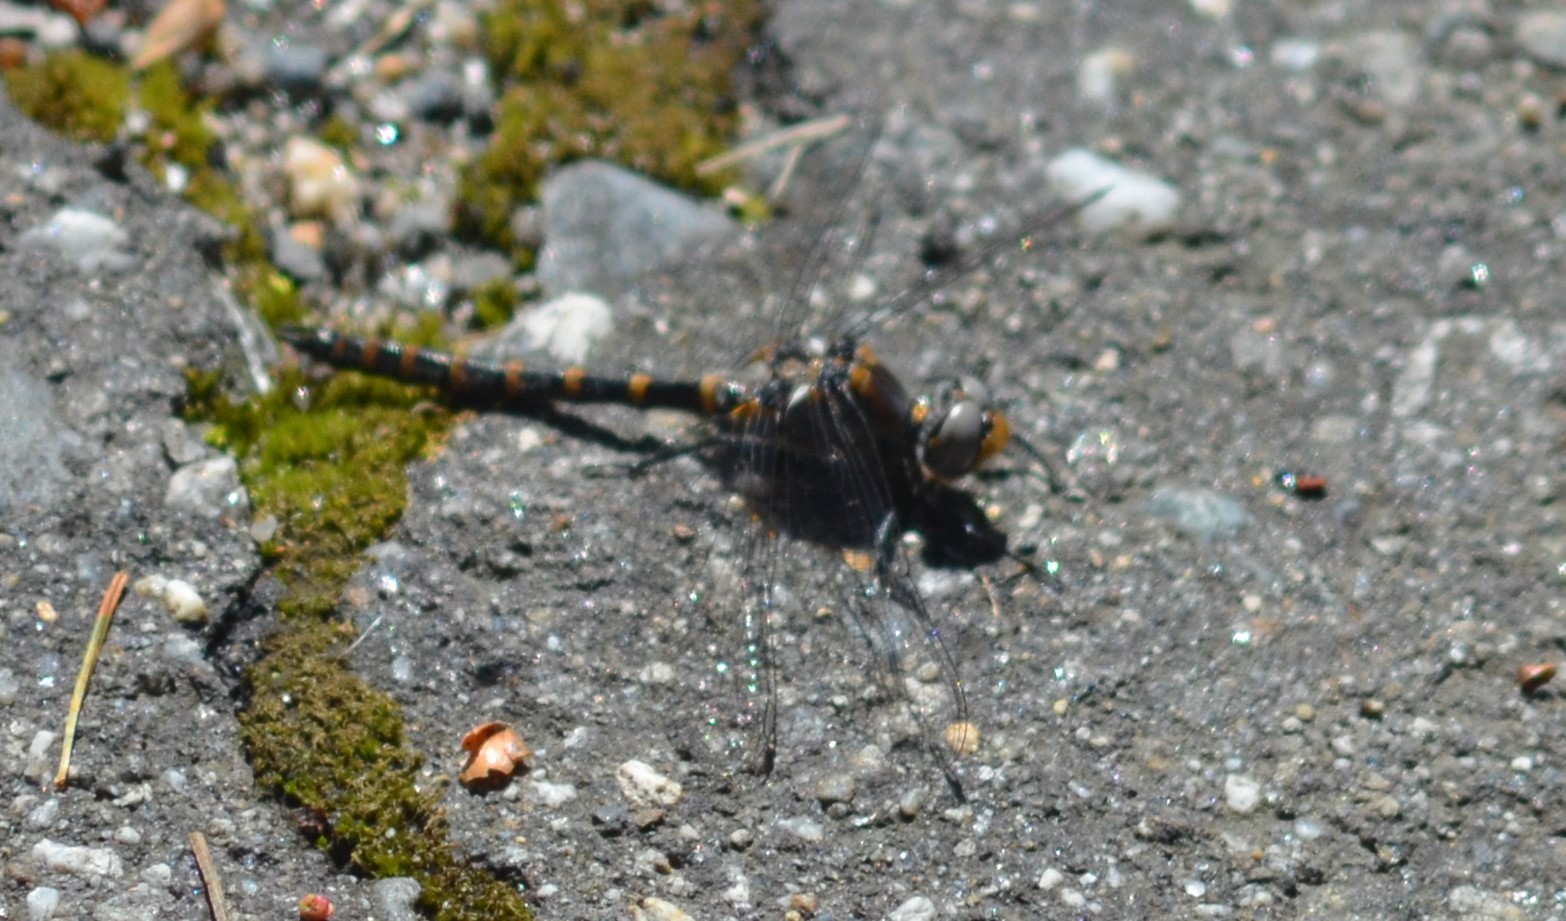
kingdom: Animalia
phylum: Arthropoda
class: Insecta
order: Odonata
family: Corduliidae
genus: Williamsonia
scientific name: Williamsonia lintneri
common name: Ringed boghaunter
